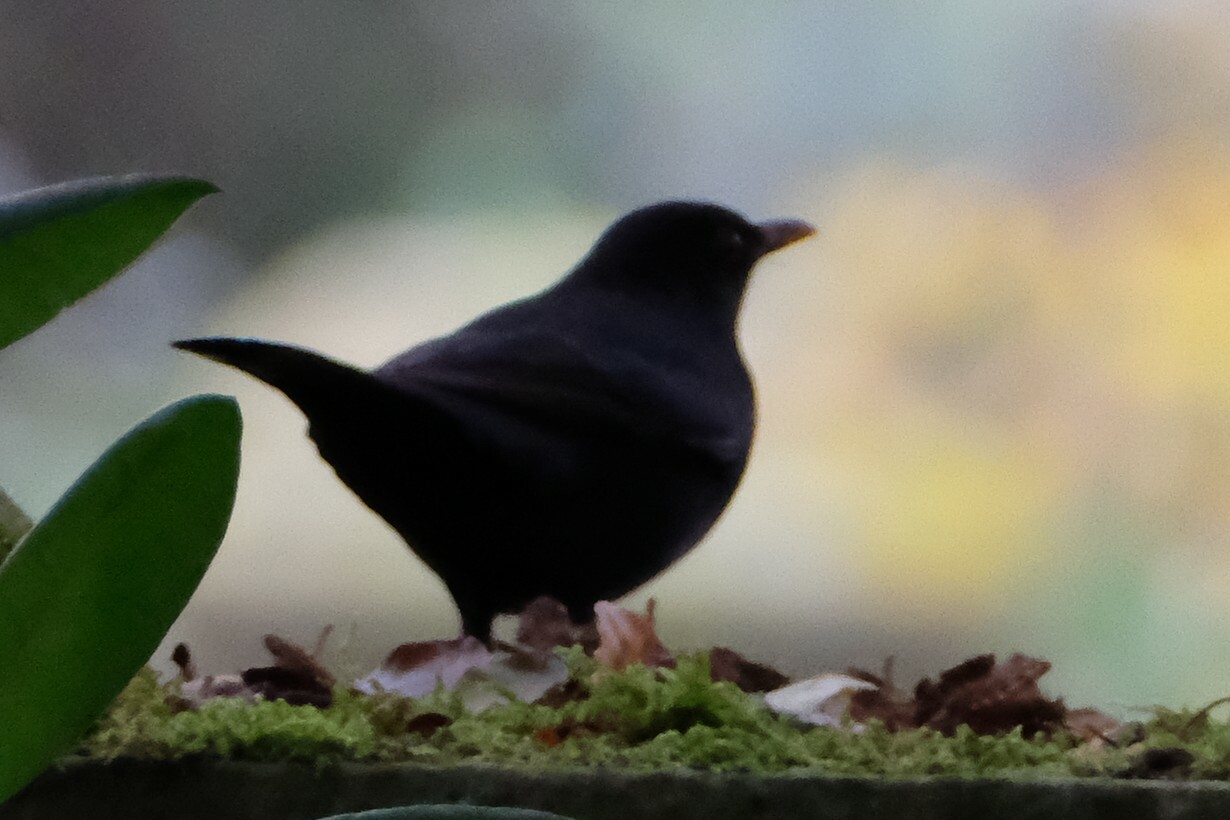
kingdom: Animalia
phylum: Chordata
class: Aves
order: Passeriformes
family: Turdidae
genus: Turdus
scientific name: Turdus merula
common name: Common blackbird
